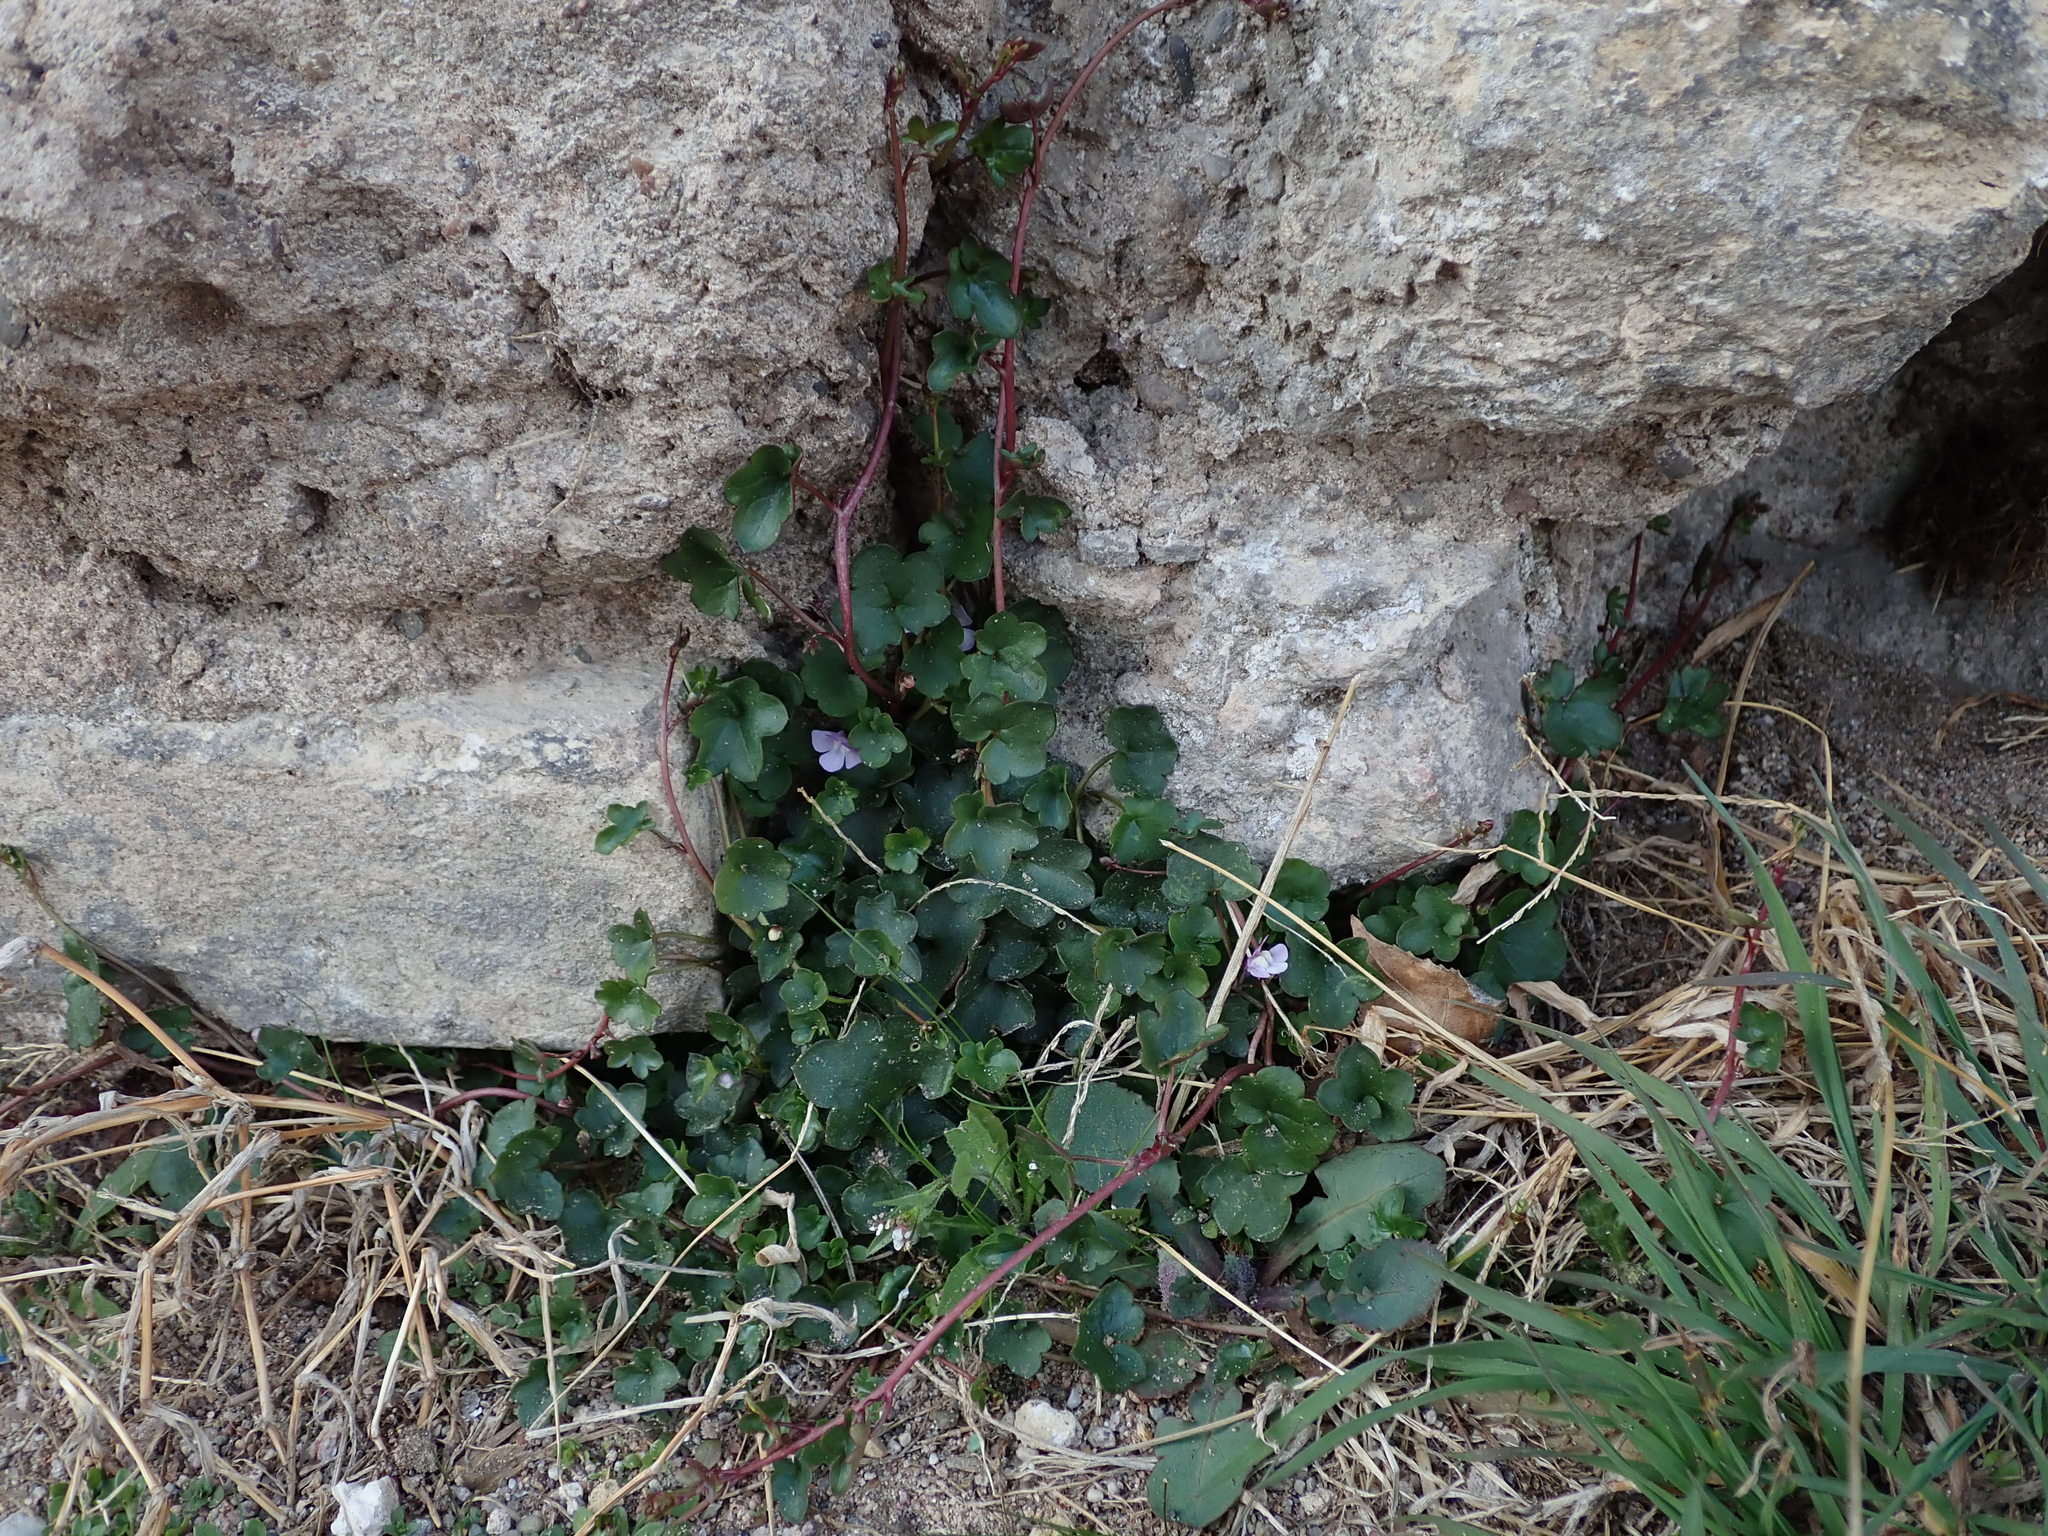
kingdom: Plantae
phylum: Tracheophyta
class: Magnoliopsida
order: Lamiales
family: Plantaginaceae
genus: Cymbalaria
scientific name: Cymbalaria muralis
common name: Ivy-leaved toadflax
